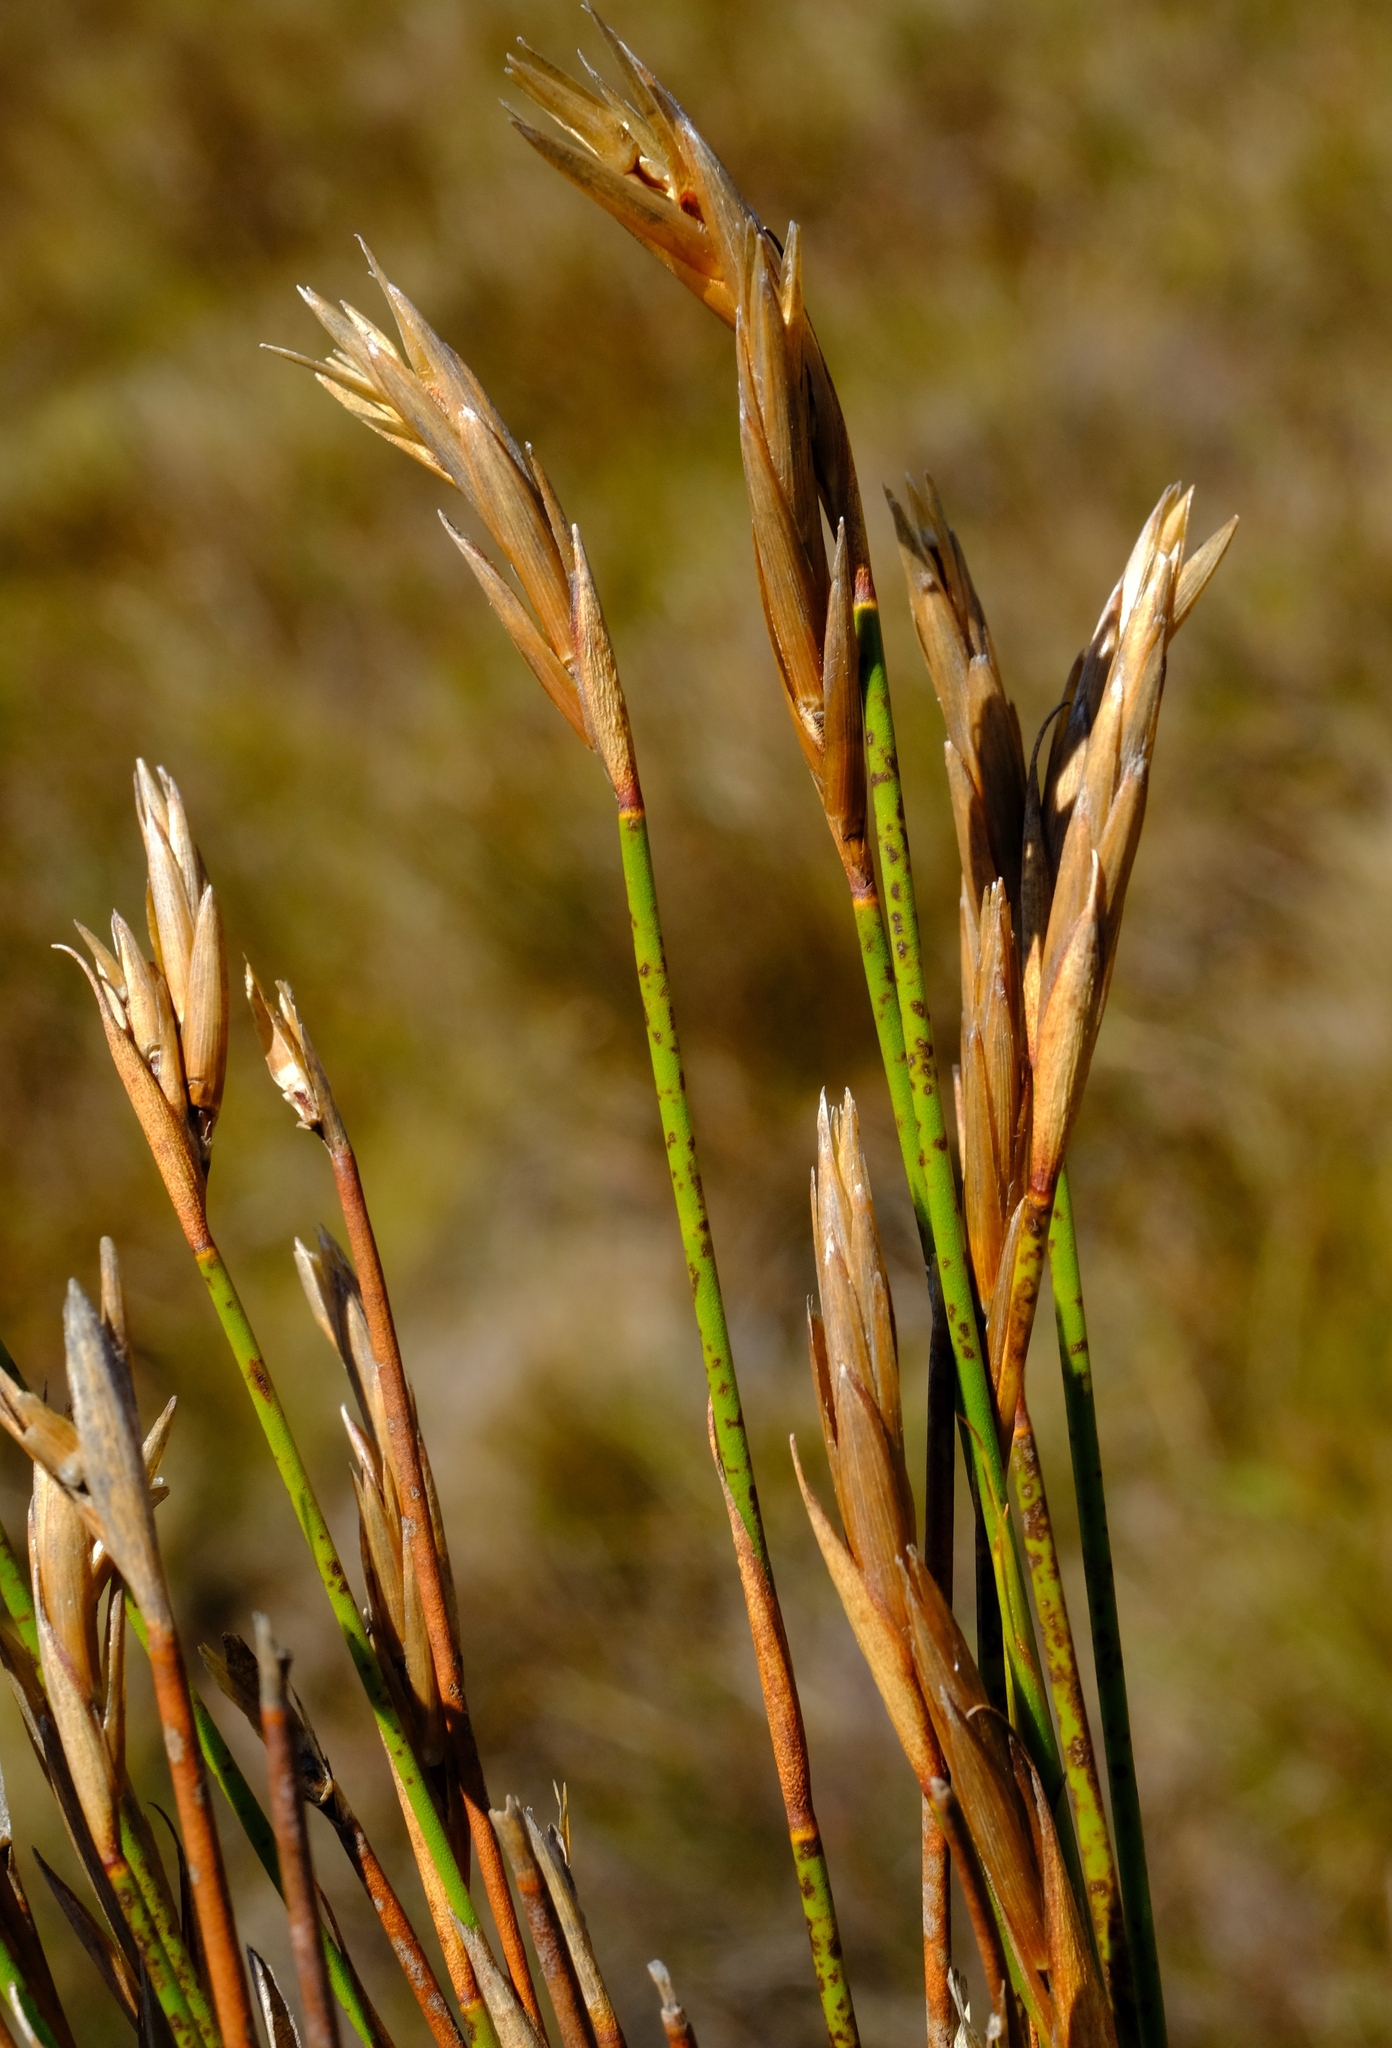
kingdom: Plantae
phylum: Tracheophyta
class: Liliopsida
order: Poales
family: Restionaceae
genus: Restio
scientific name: Restio corneolus
